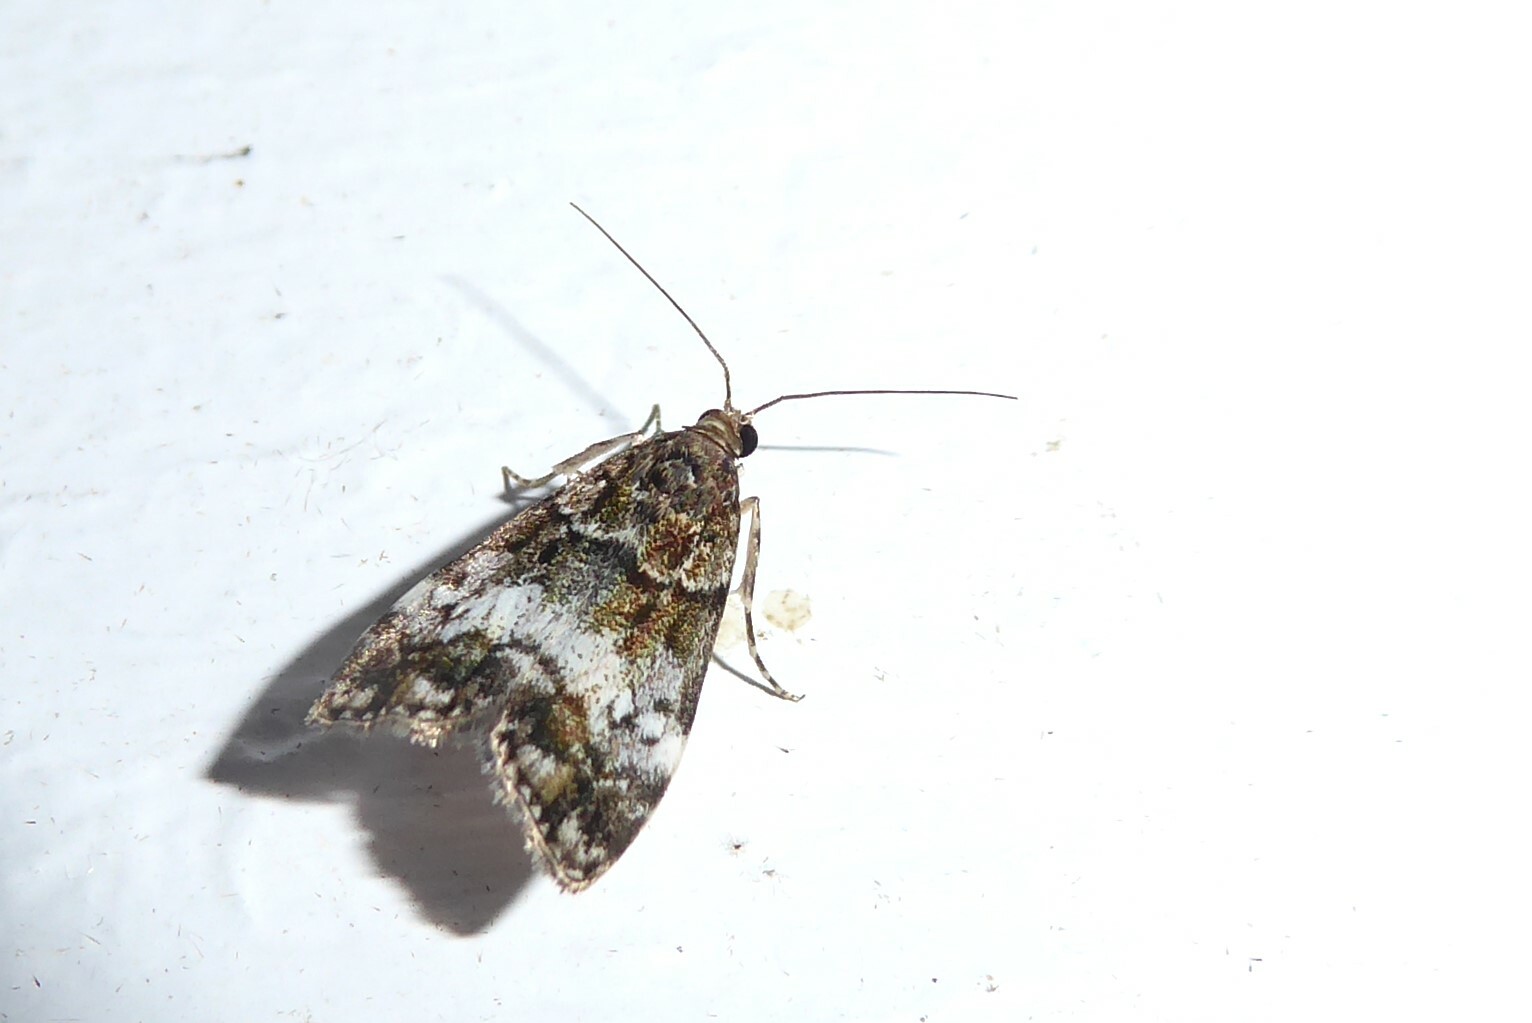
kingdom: Animalia
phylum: Arthropoda
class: Insecta
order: Lepidoptera
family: Crambidae
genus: Eudonia
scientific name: Eudonia dinodes
